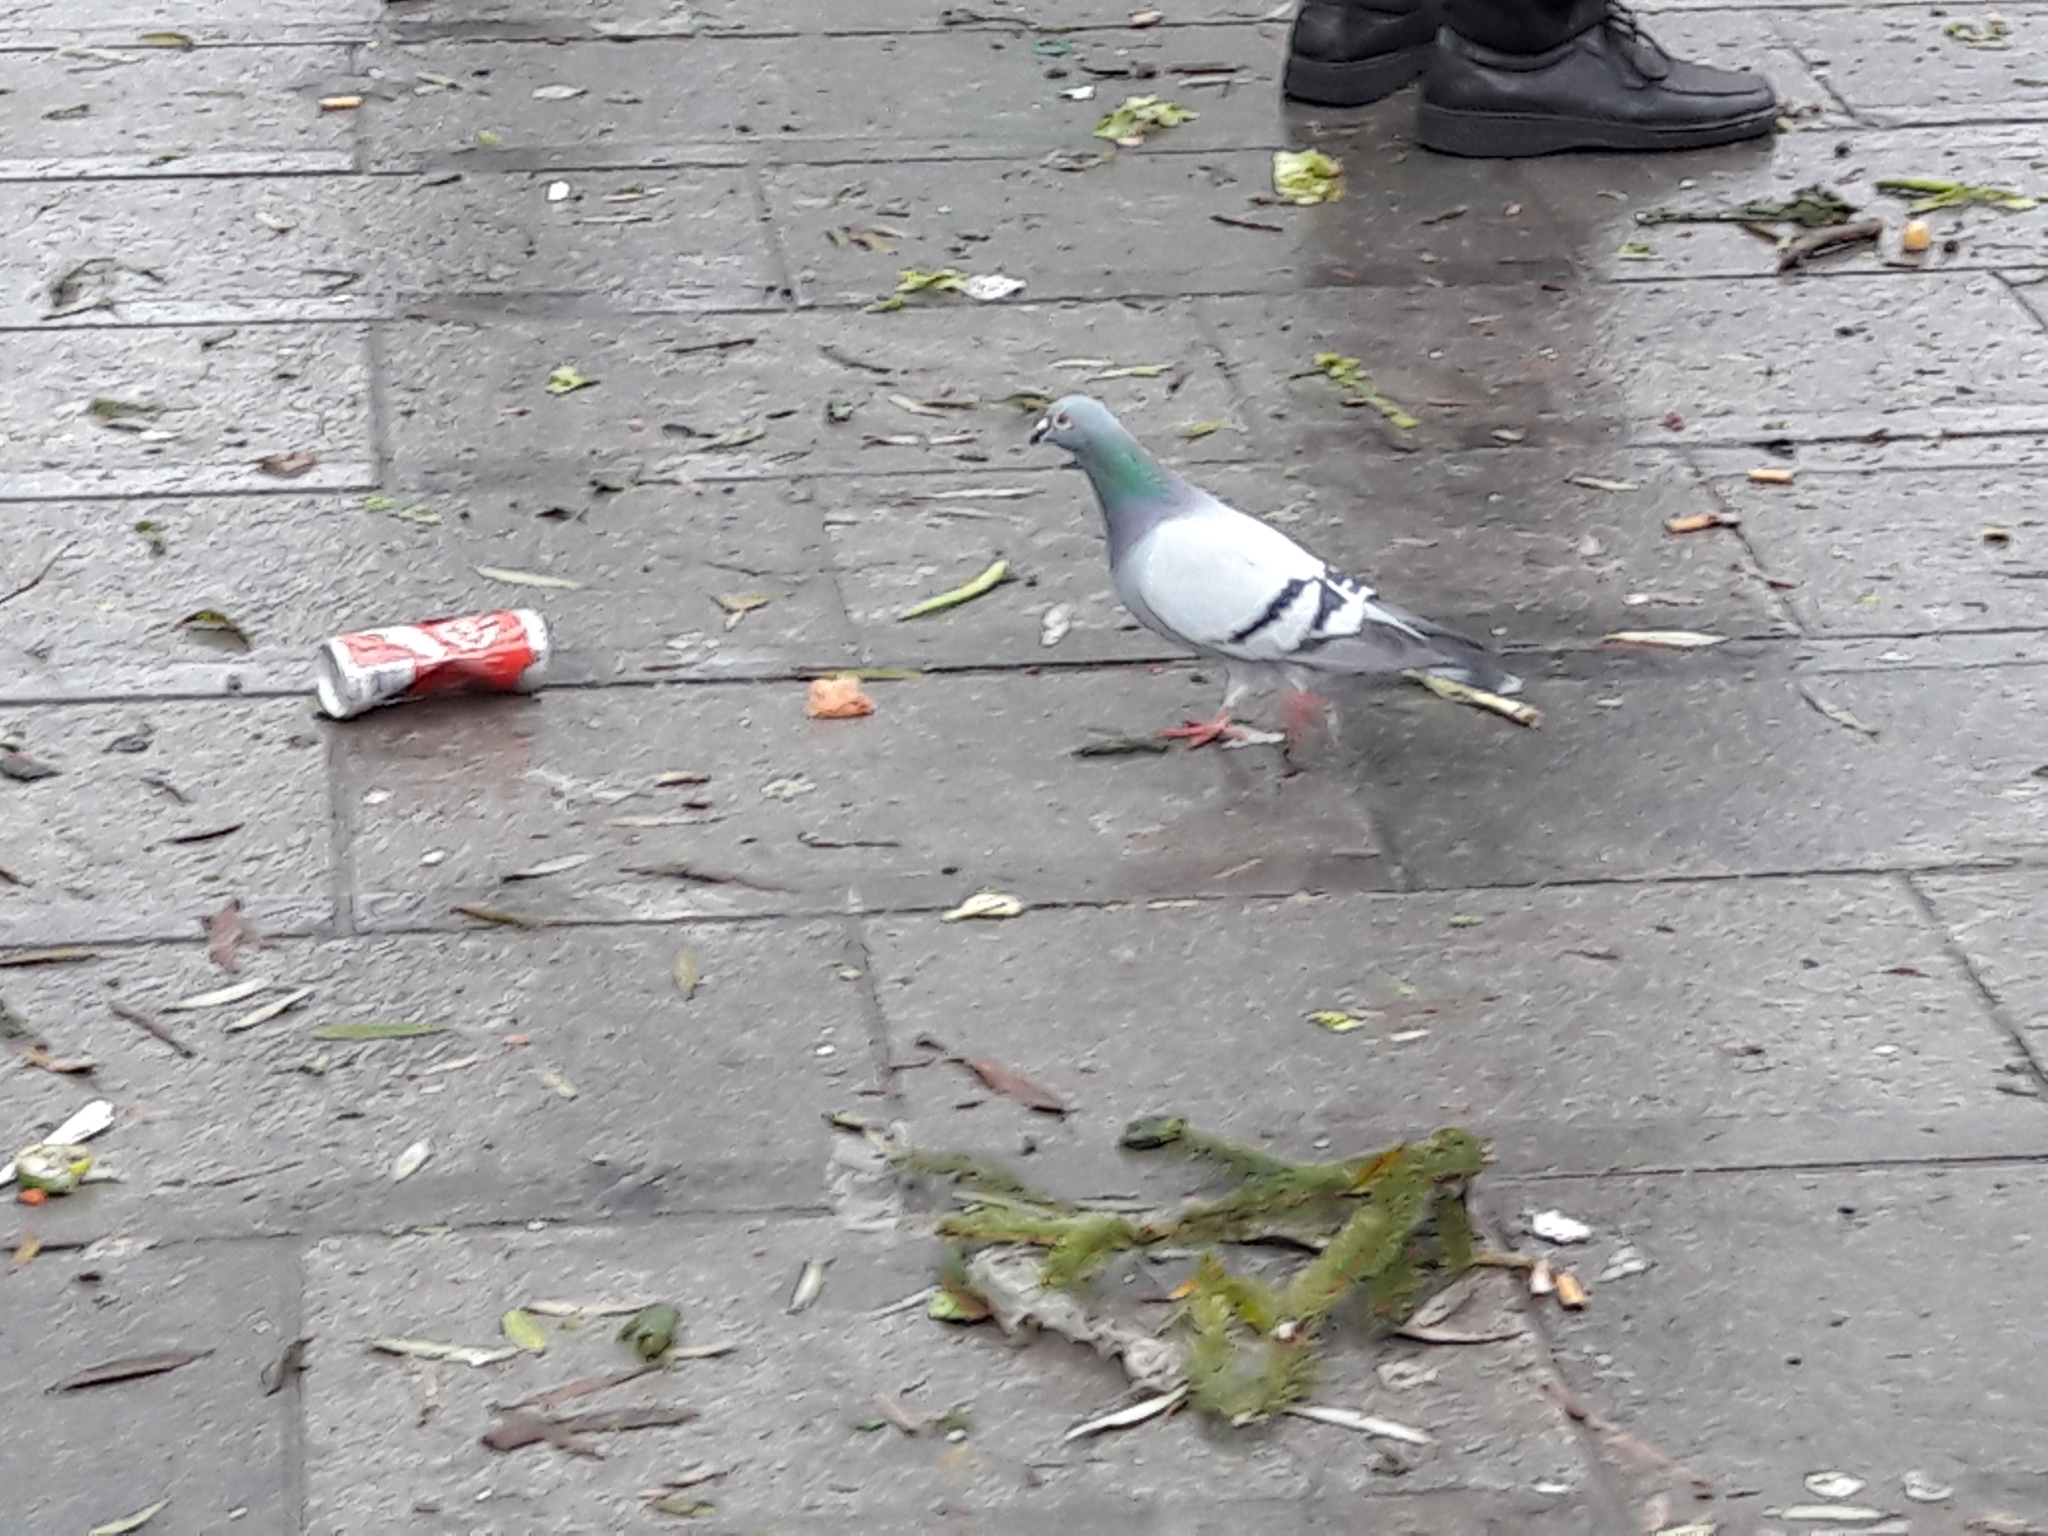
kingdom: Animalia
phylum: Chordata
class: Aves
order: Columbiformes
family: Columbidae
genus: Columba
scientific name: Columba livia
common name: Rock pigeon
